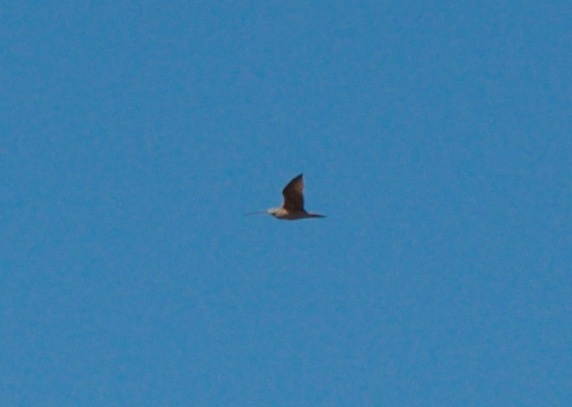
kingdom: Animalia
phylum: Chordata
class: Aves
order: Charadriiformes
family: Scolopacidae
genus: Numenius
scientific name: Numenius americanus
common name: Long-billed curlew
